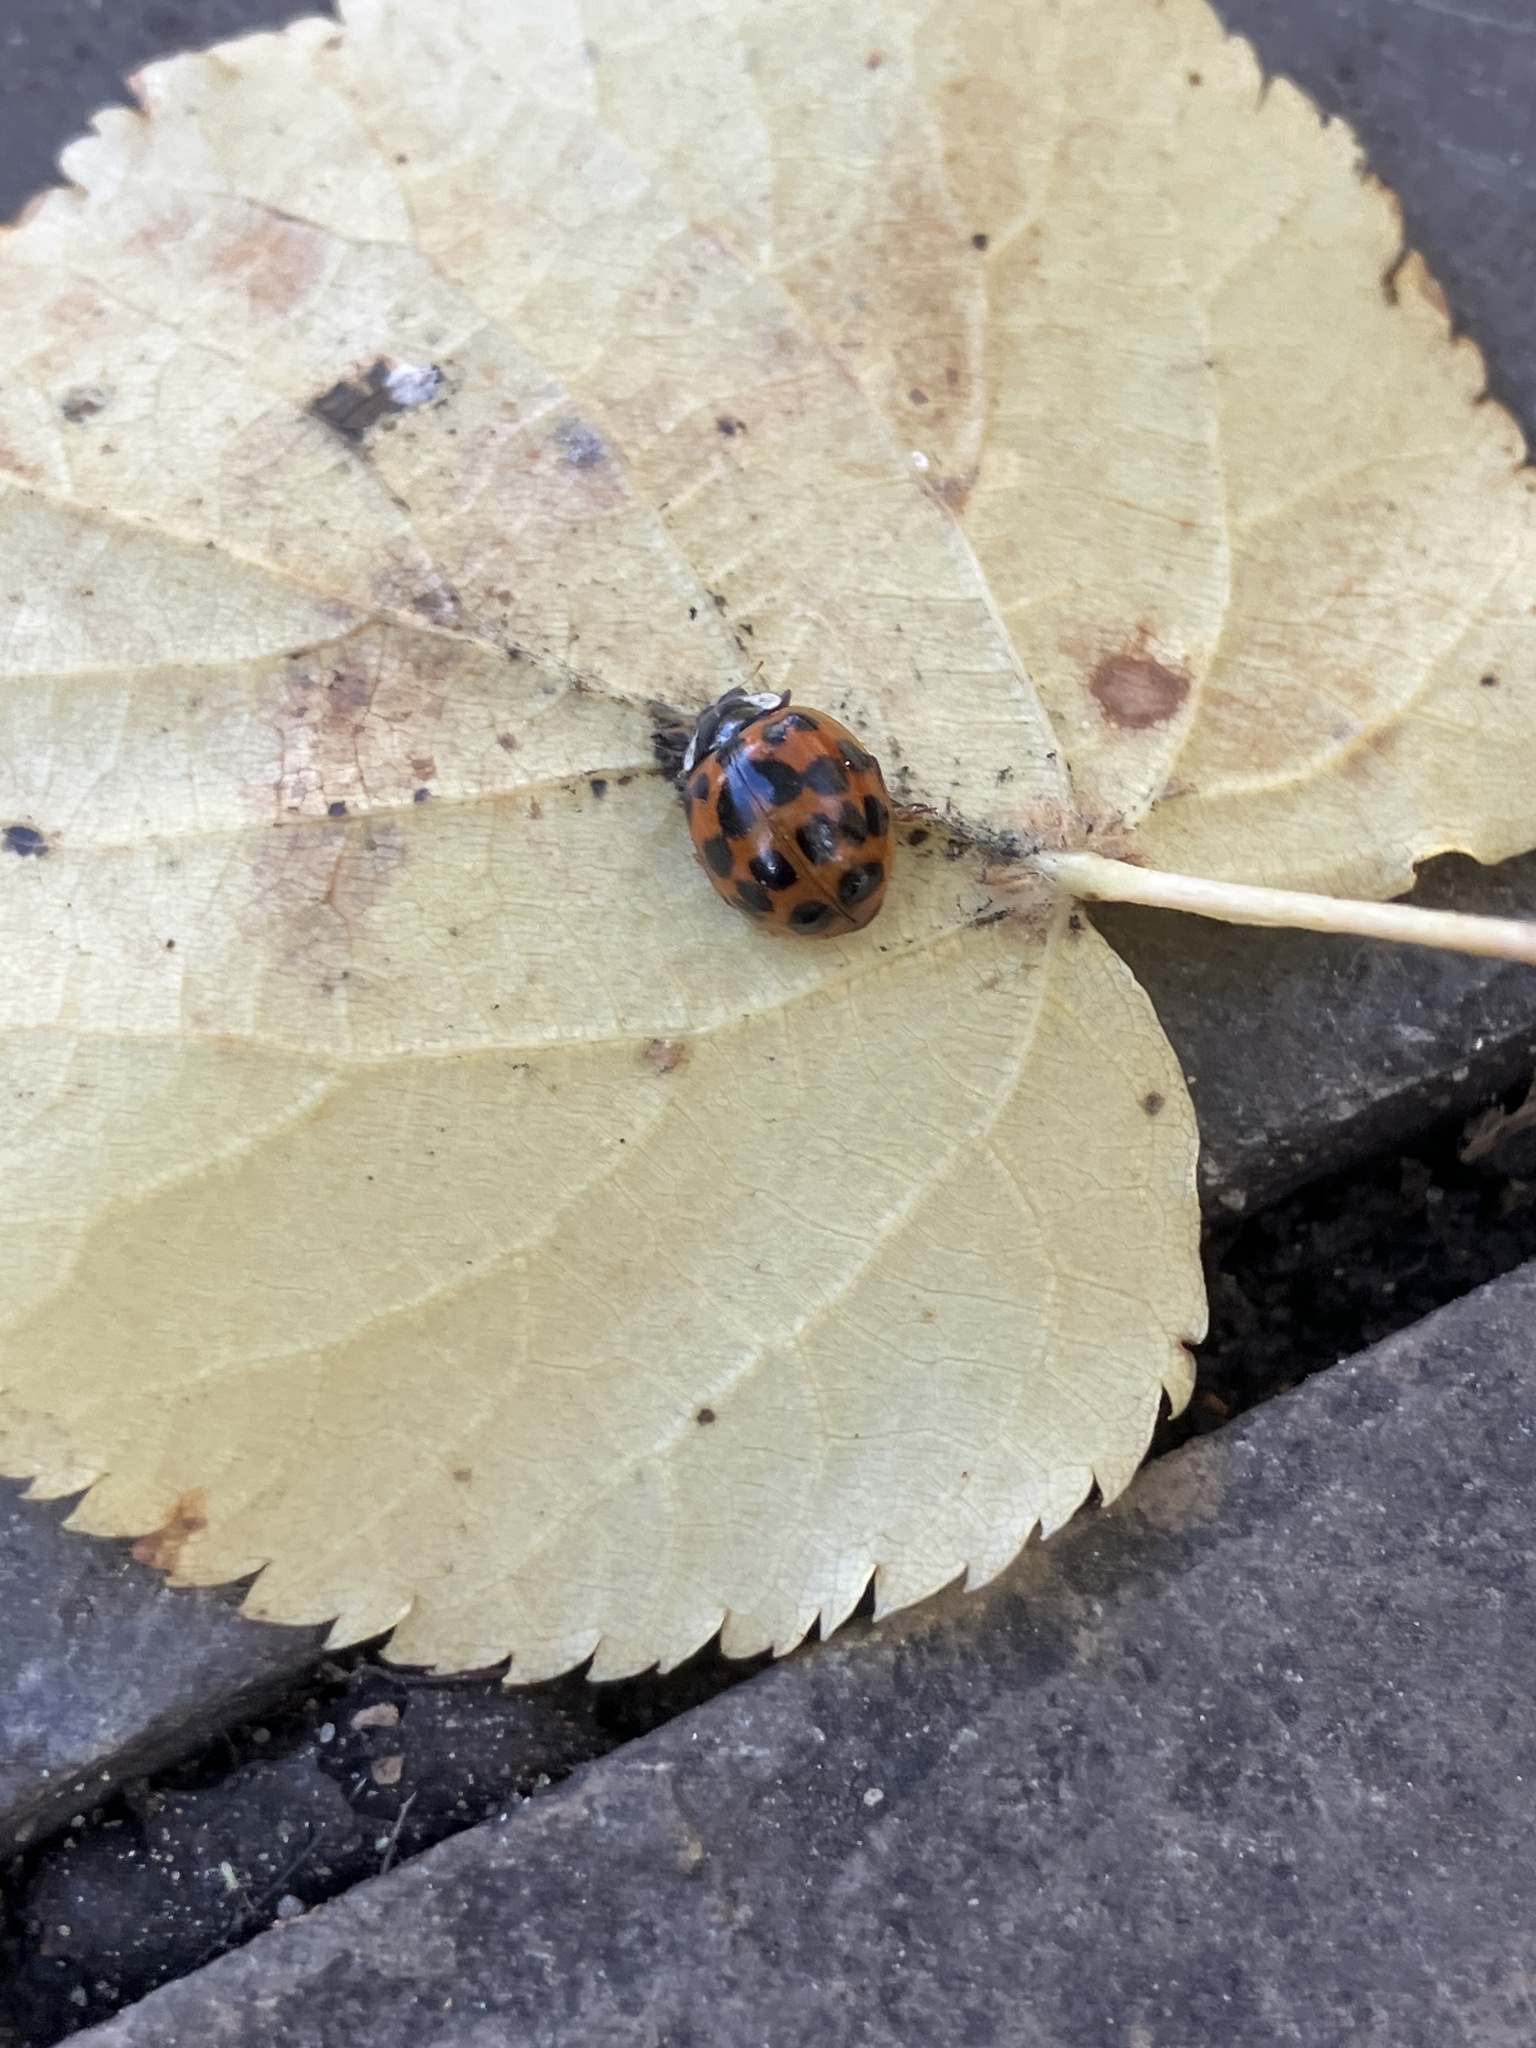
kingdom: Animalia
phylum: Arthropoda
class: Insecta
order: Coleoptera
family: Coccinellidae
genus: Harmonia
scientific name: Harmonia axyridis
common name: Harlequin ladybird
